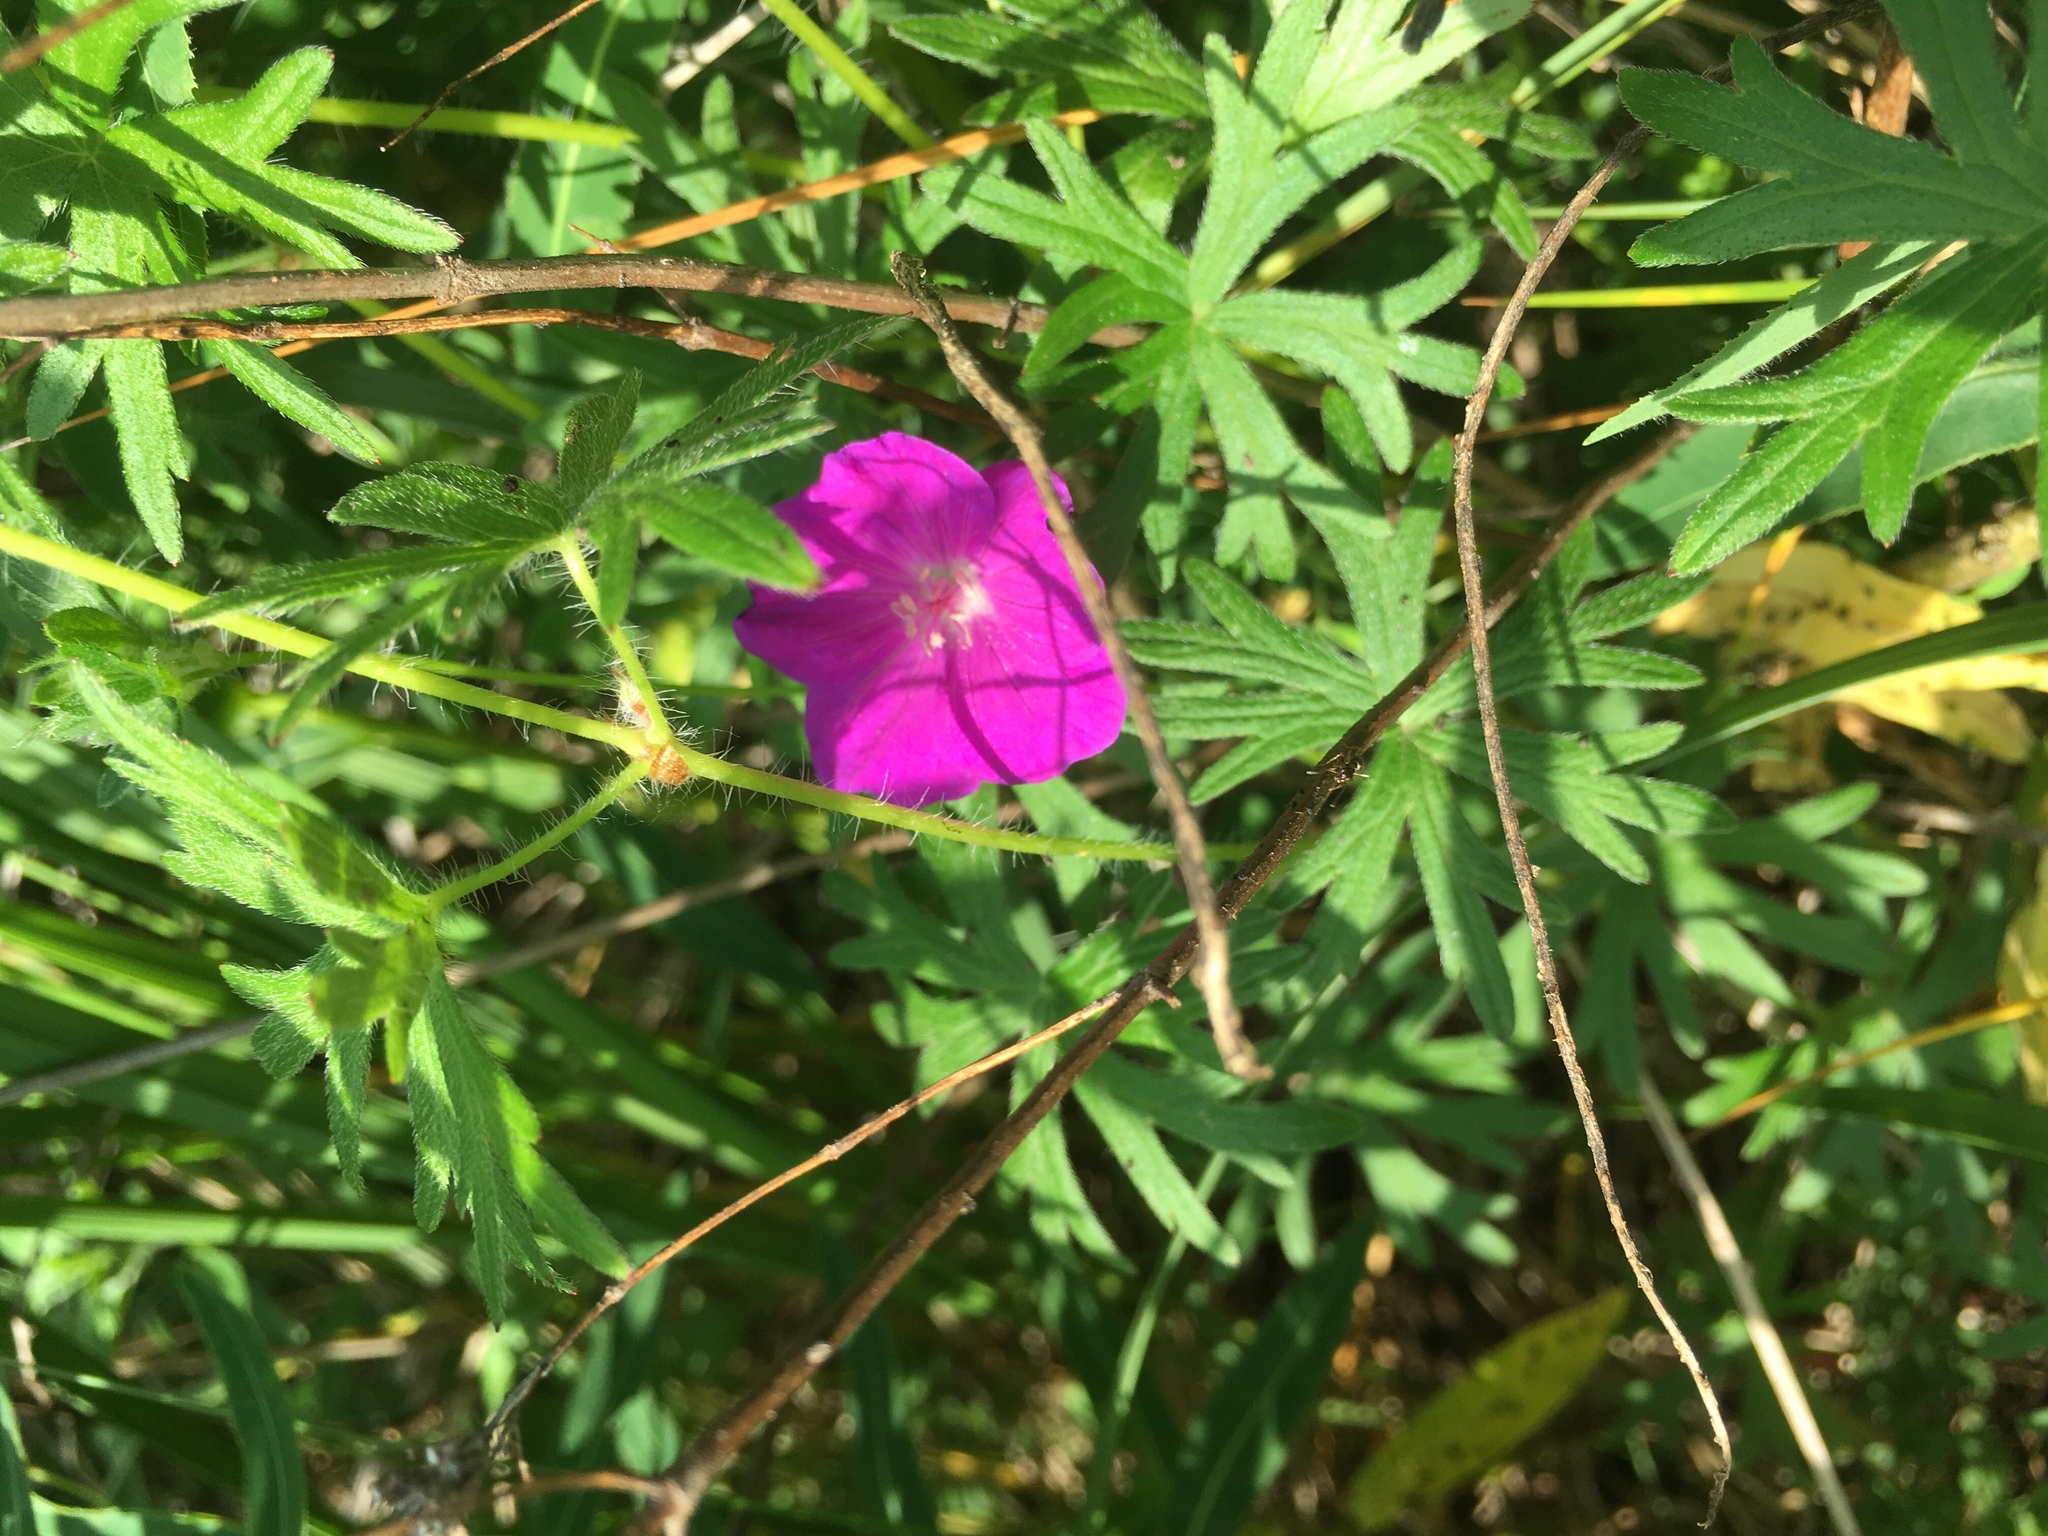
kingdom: Plantae
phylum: Tracheophyta
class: Magnoliopsida
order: Geraniales
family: Geraniaceae
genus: Geranium
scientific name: Geranium sanguineum
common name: Bloody crane's-bill
